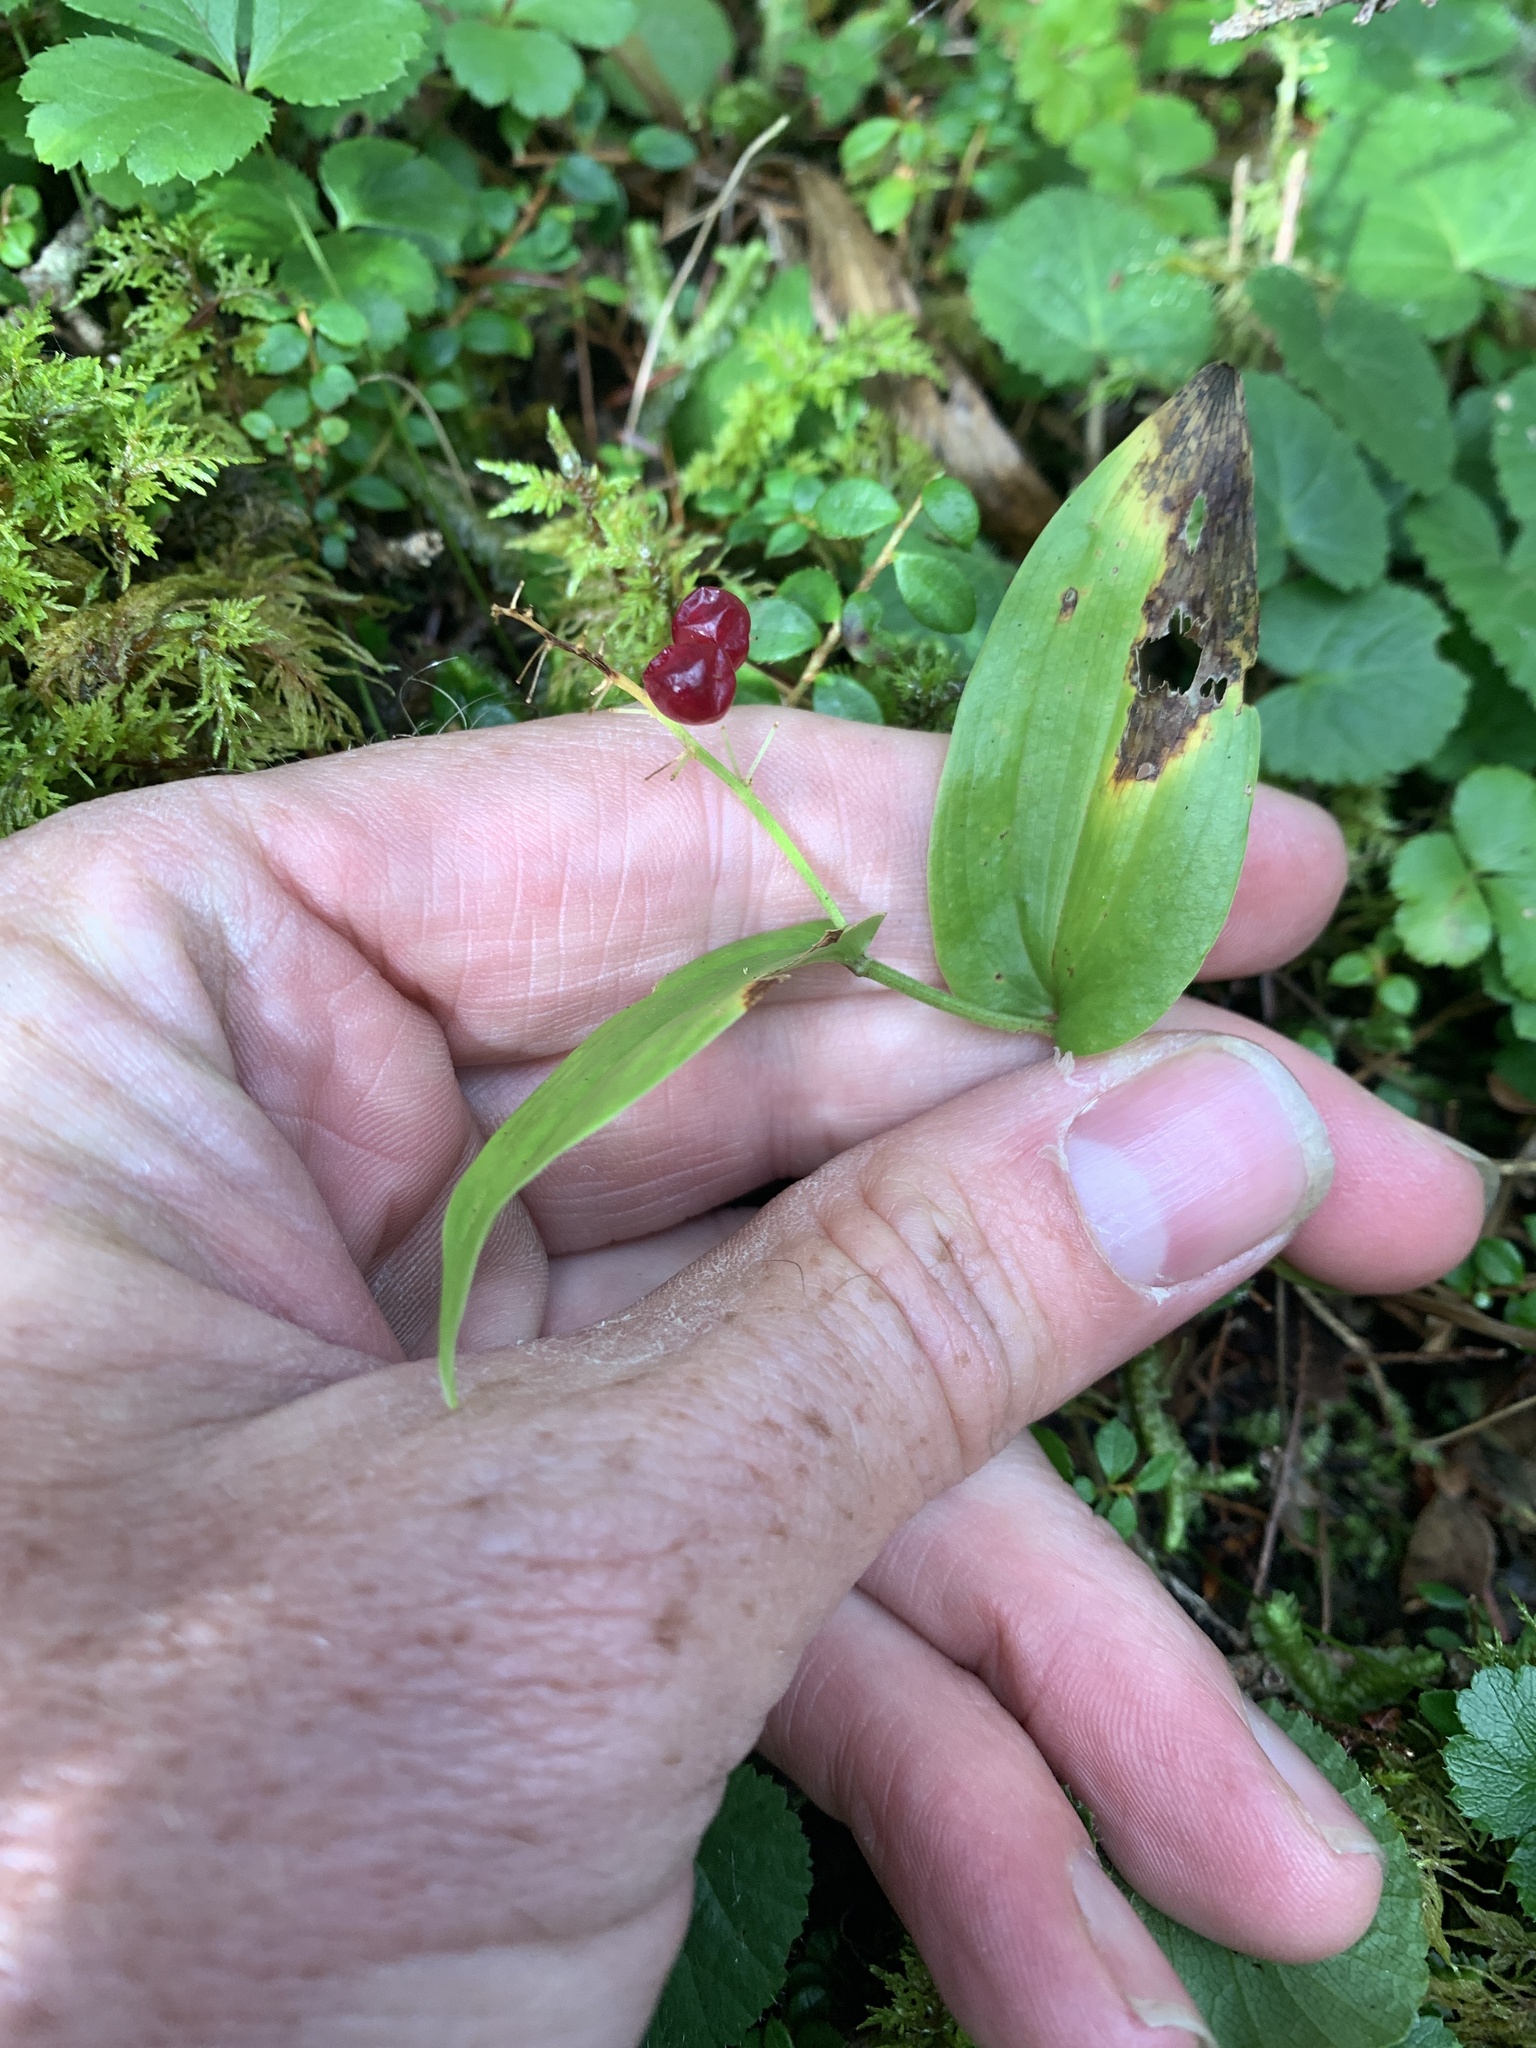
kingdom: Plantae
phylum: Tracheophyta
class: Liliopsida
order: Asparagales
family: Asparagaceae
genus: Maianthemum
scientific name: Maianthemum canadense
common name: False lily-of-the-valley
